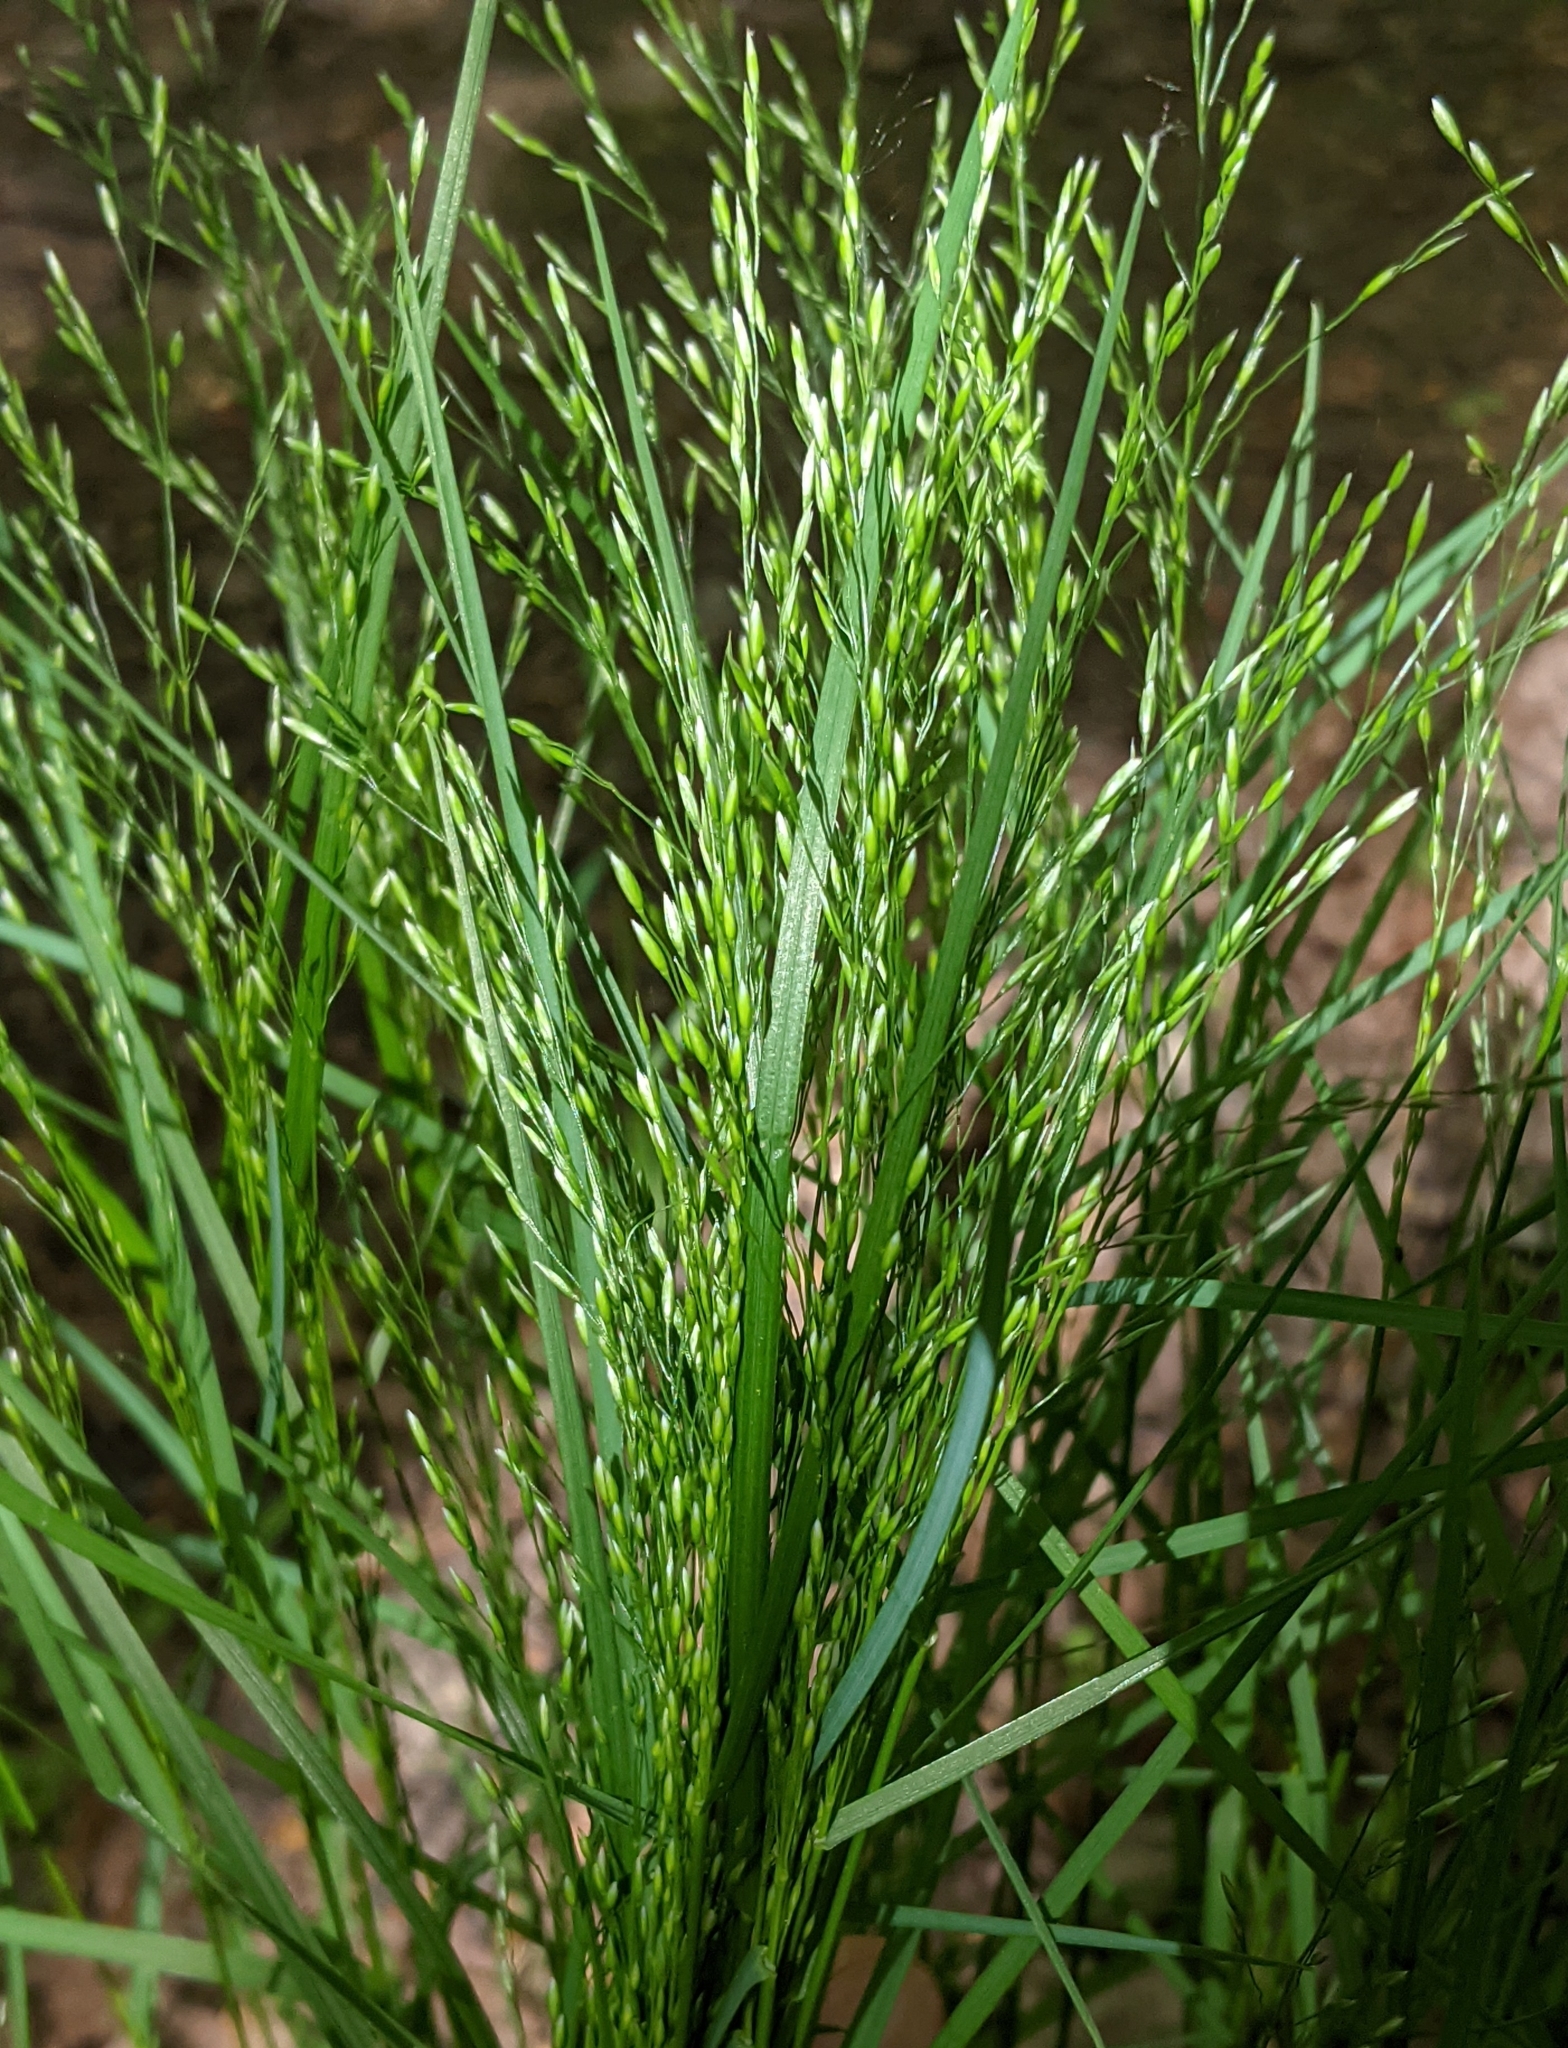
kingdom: Plantae
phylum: Tracheophyta
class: Liliopsida
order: Poales
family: Poaceae
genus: Poa
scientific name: Poa palustris
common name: Swamp meadow-grass
